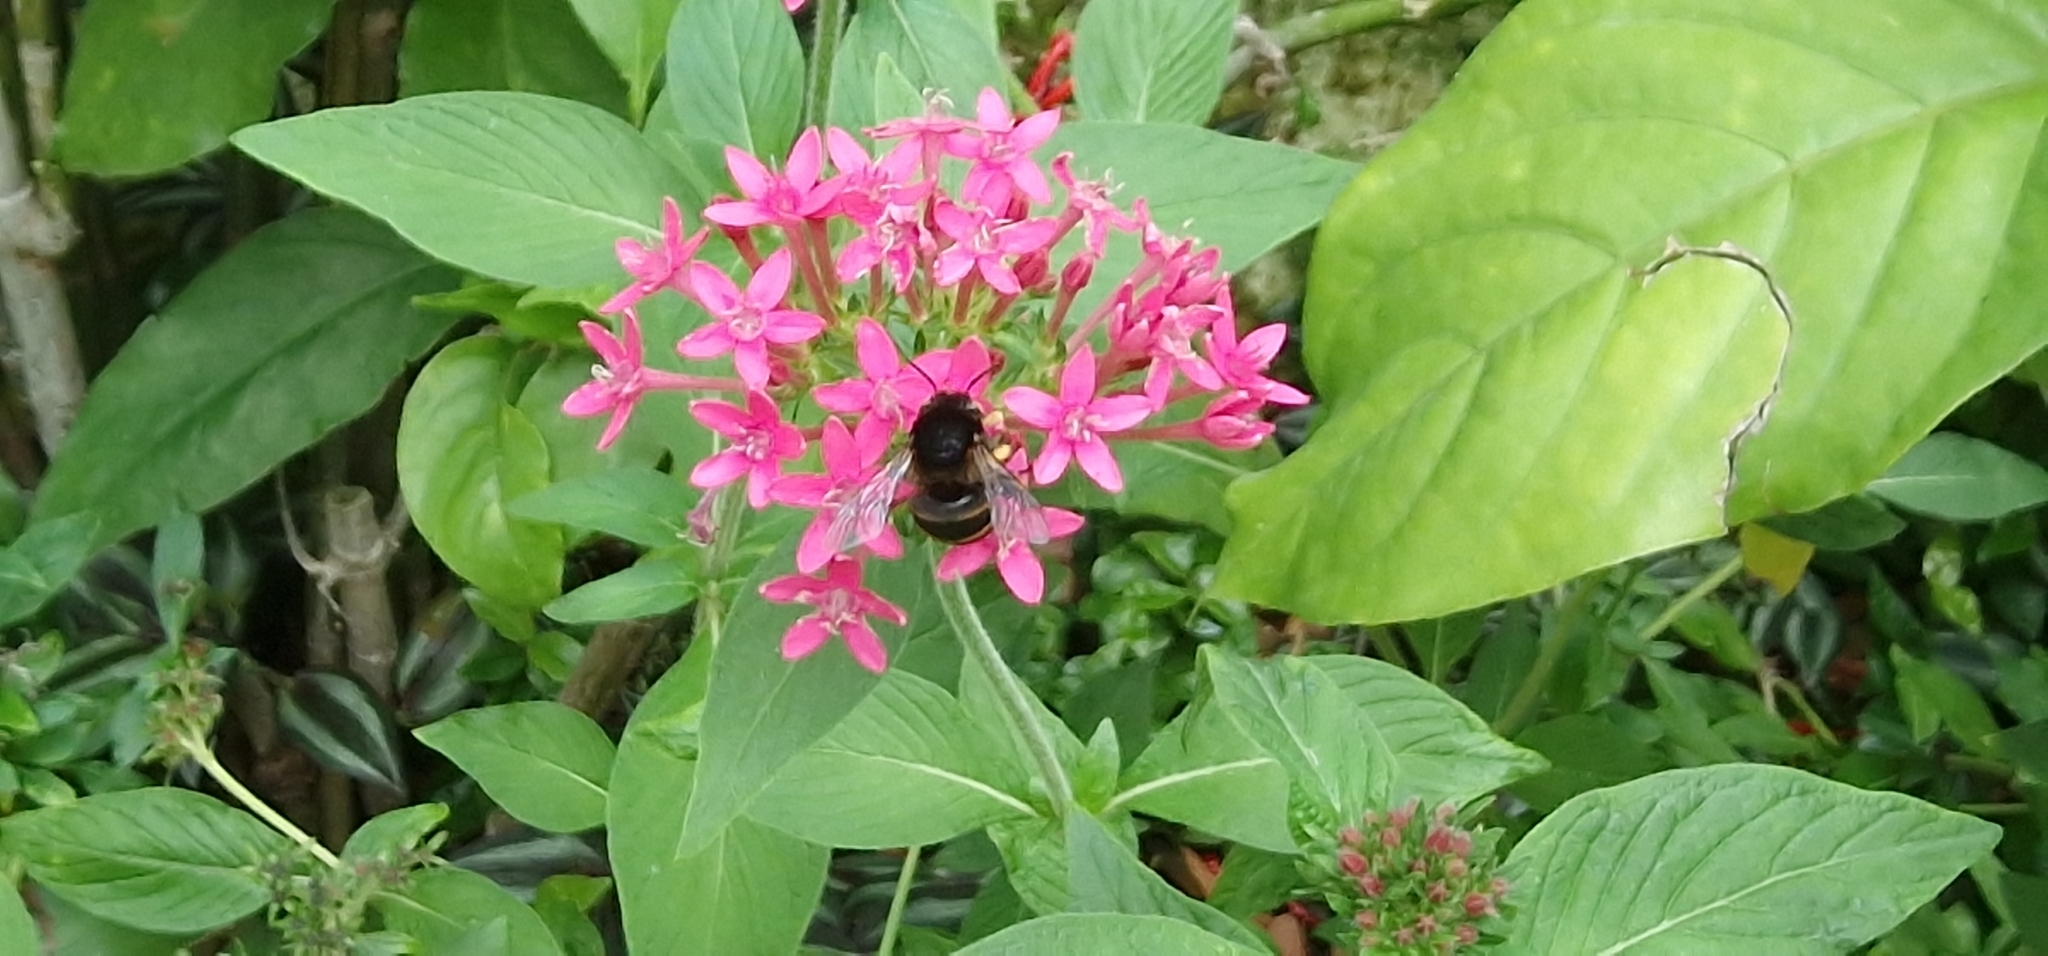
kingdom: Animalia
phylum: Arthropoda
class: Insecta
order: Hymenoptera
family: Apidae
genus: Amegilla
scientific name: Amegilla quadrifasciata
